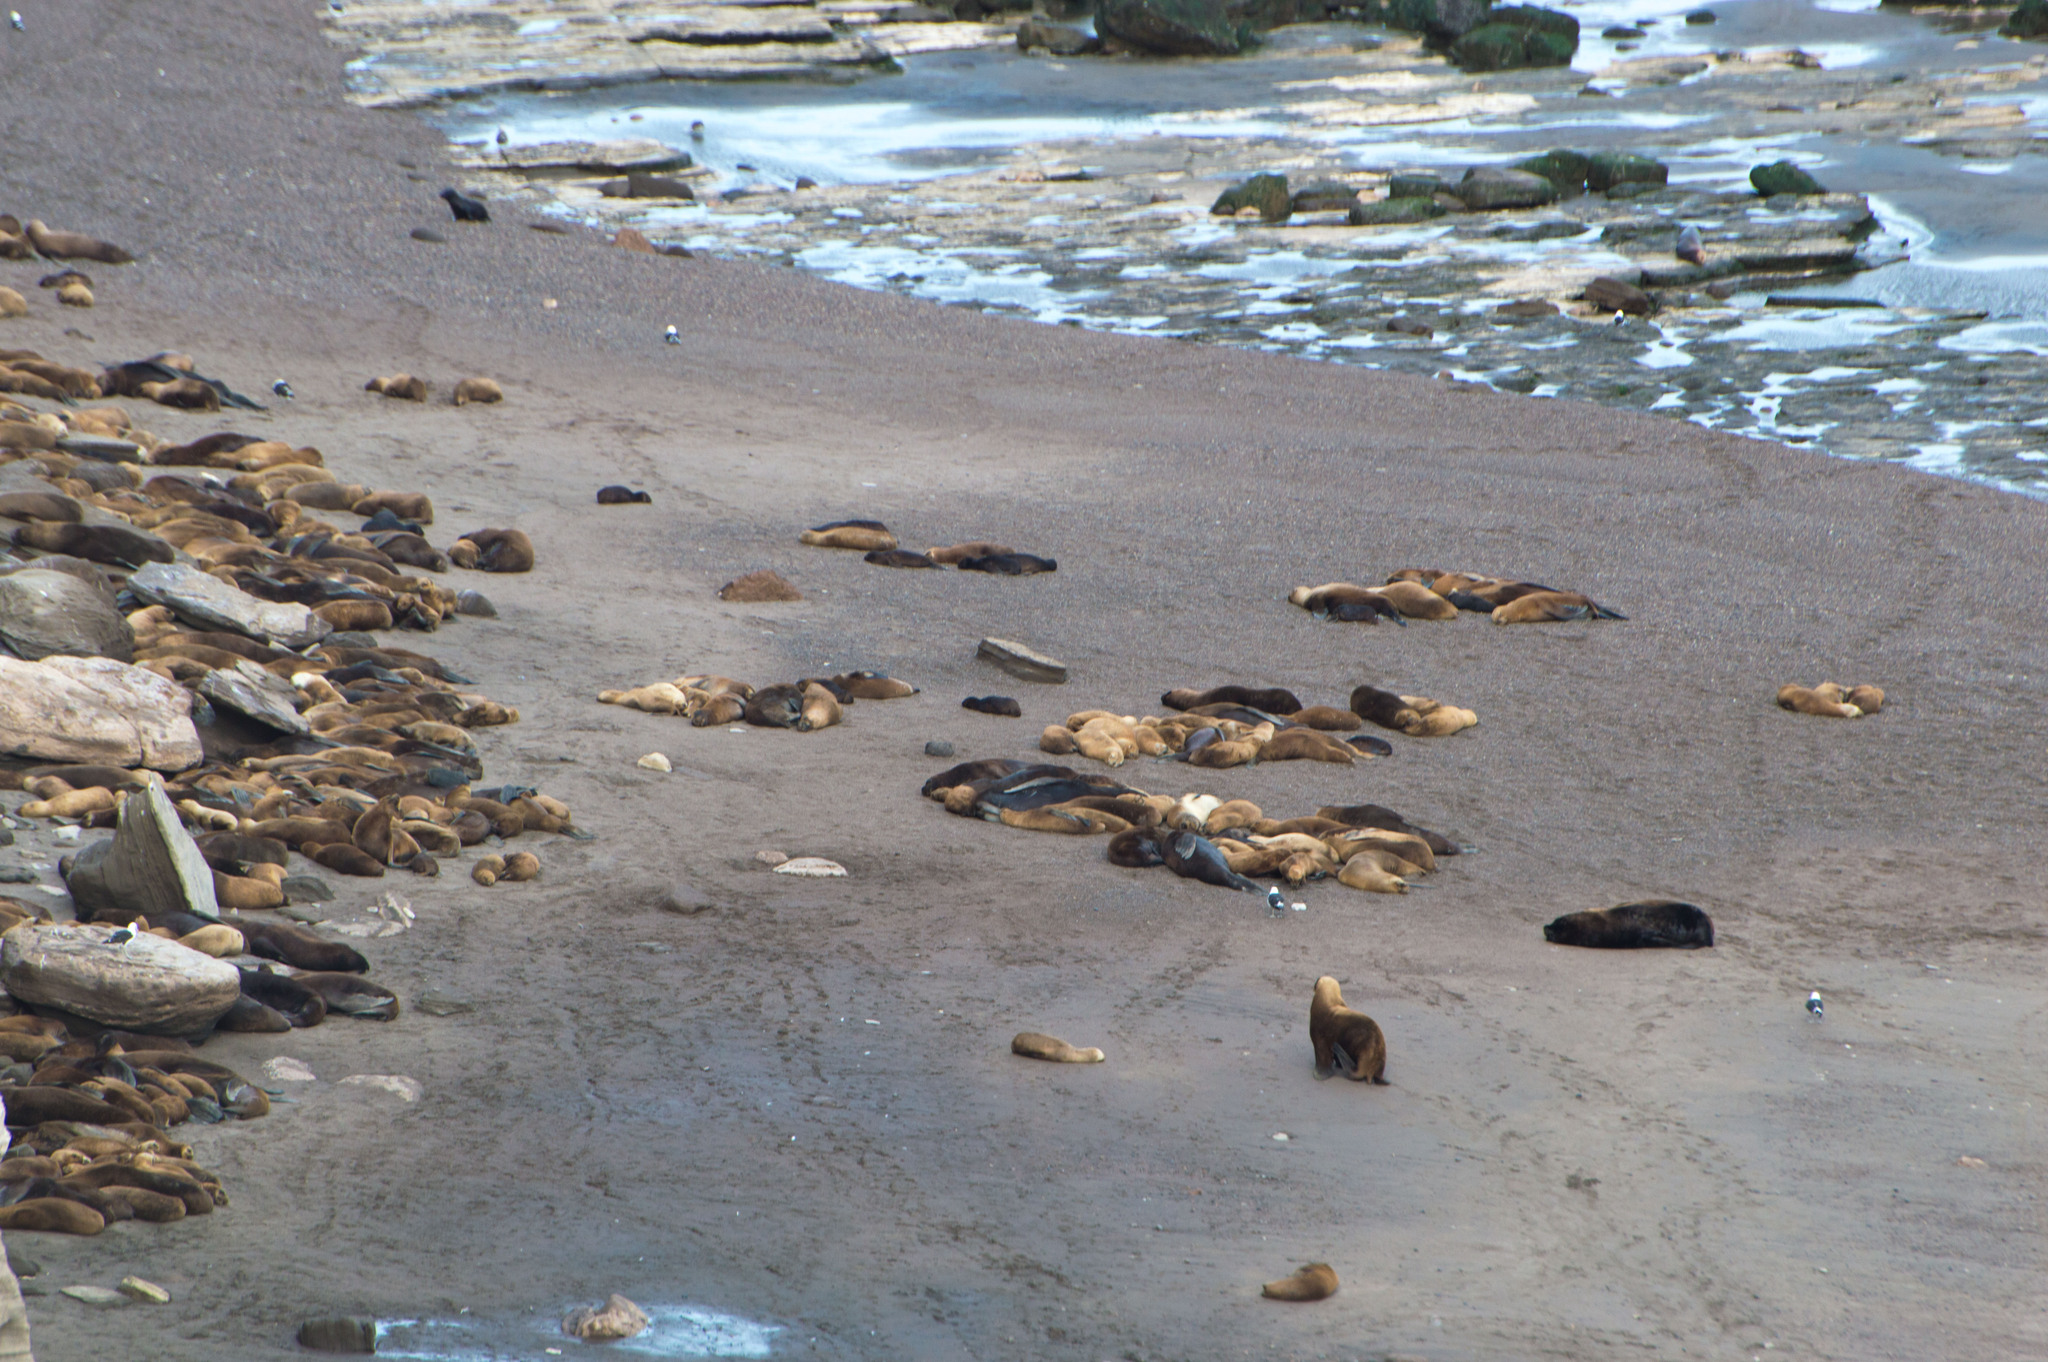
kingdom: Animalia
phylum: Chordata
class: Mammalia
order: Carnivora
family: Otariidae
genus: Otaria
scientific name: Otaria byronia
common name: South american sea lion
